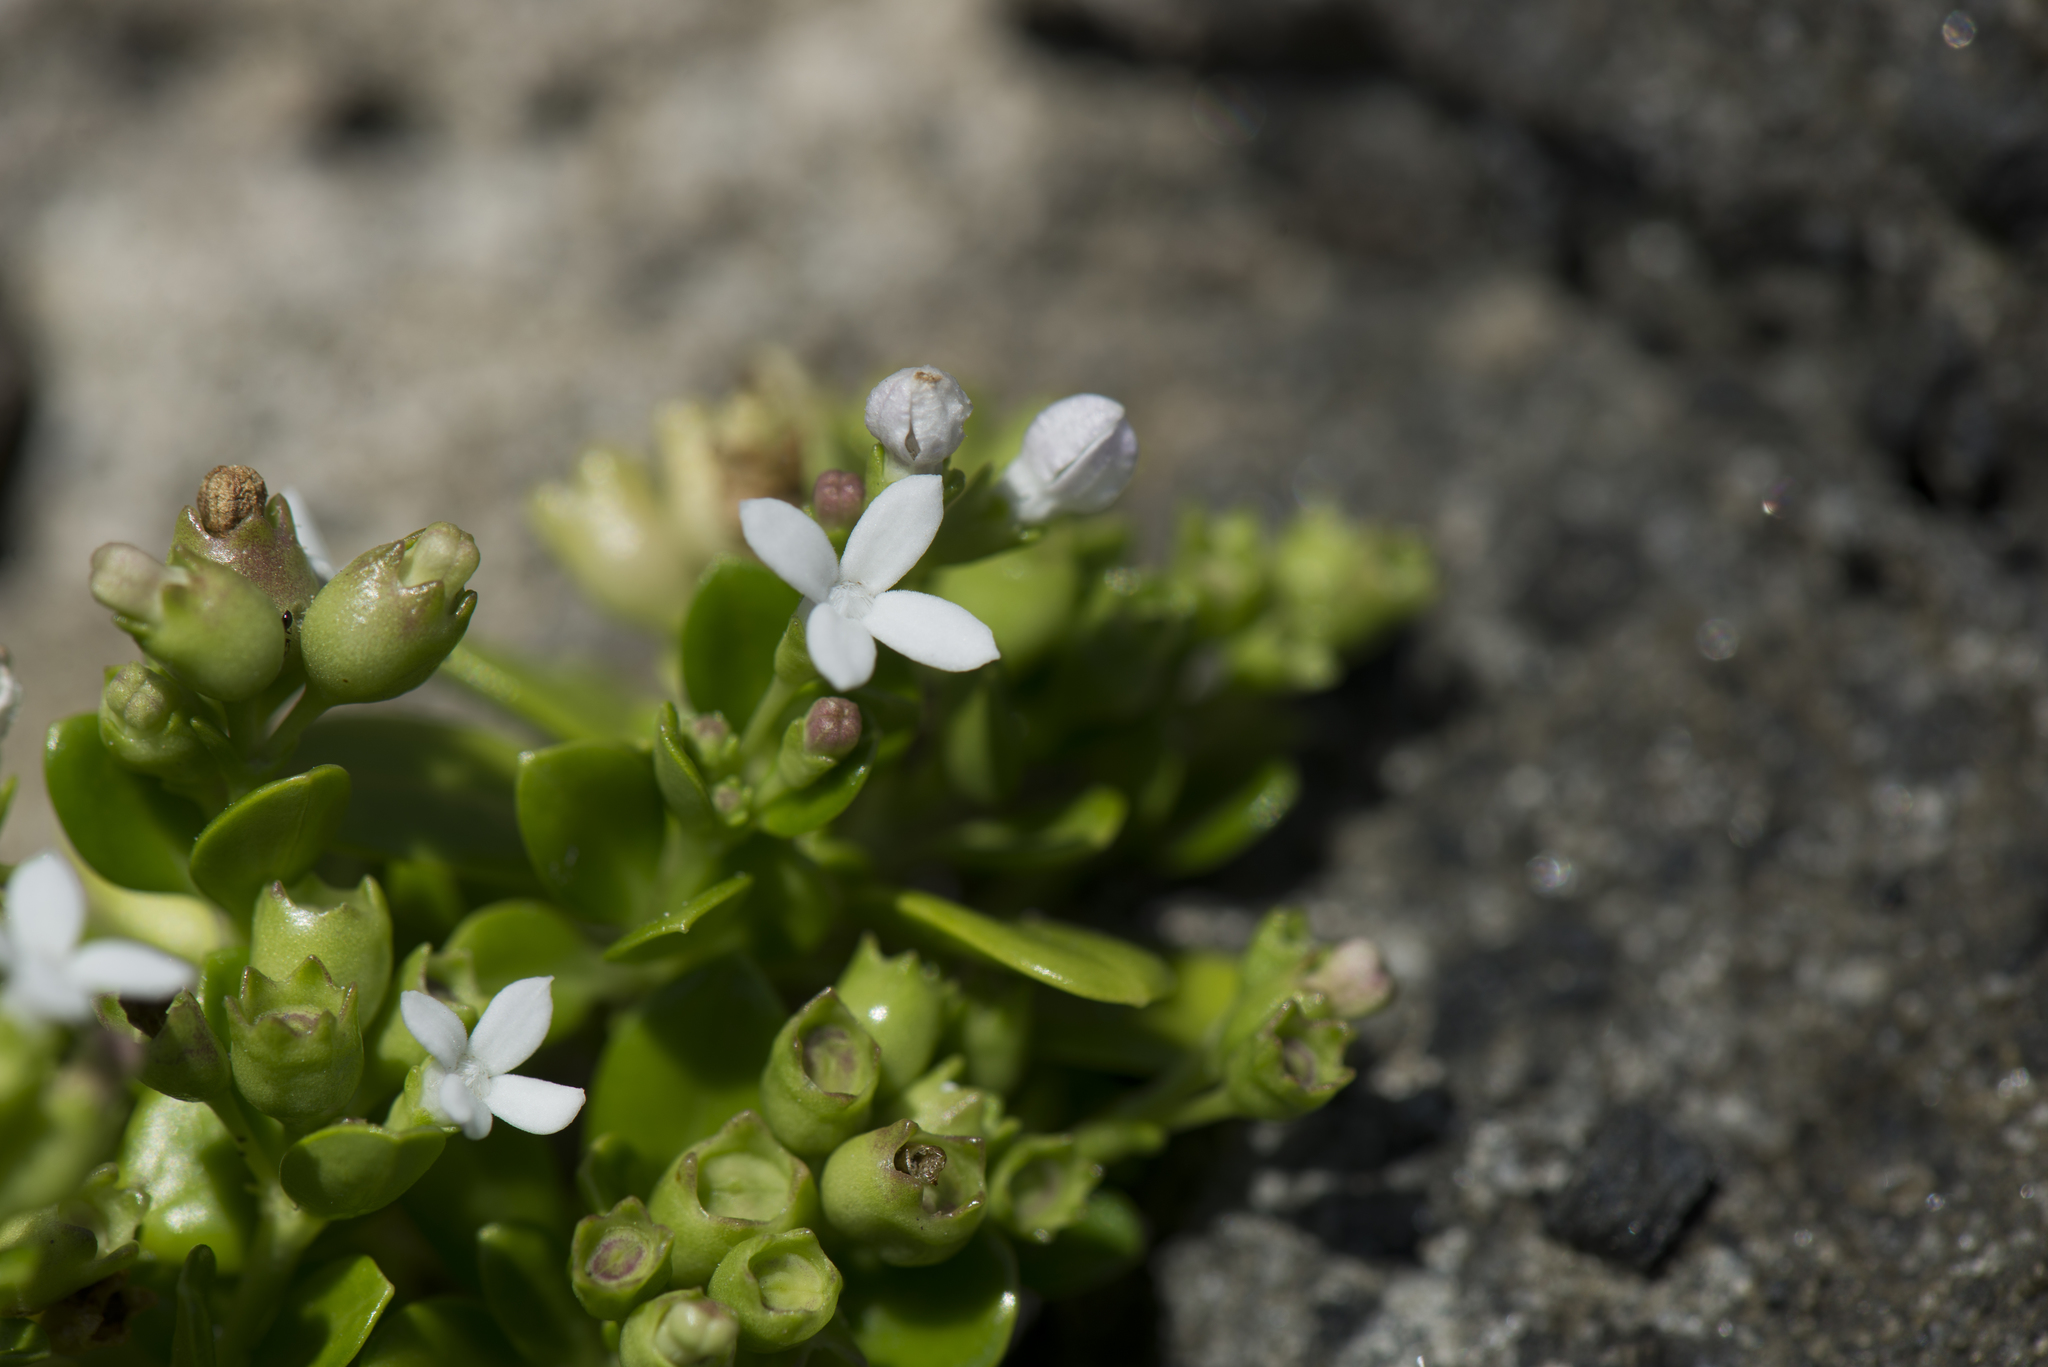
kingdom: Plantae
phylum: Tracheophyta
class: Magnoliopsida
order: Gentianales
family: Rubiaceae
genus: Leptopetalum
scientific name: Leptopetalum strigulosum
